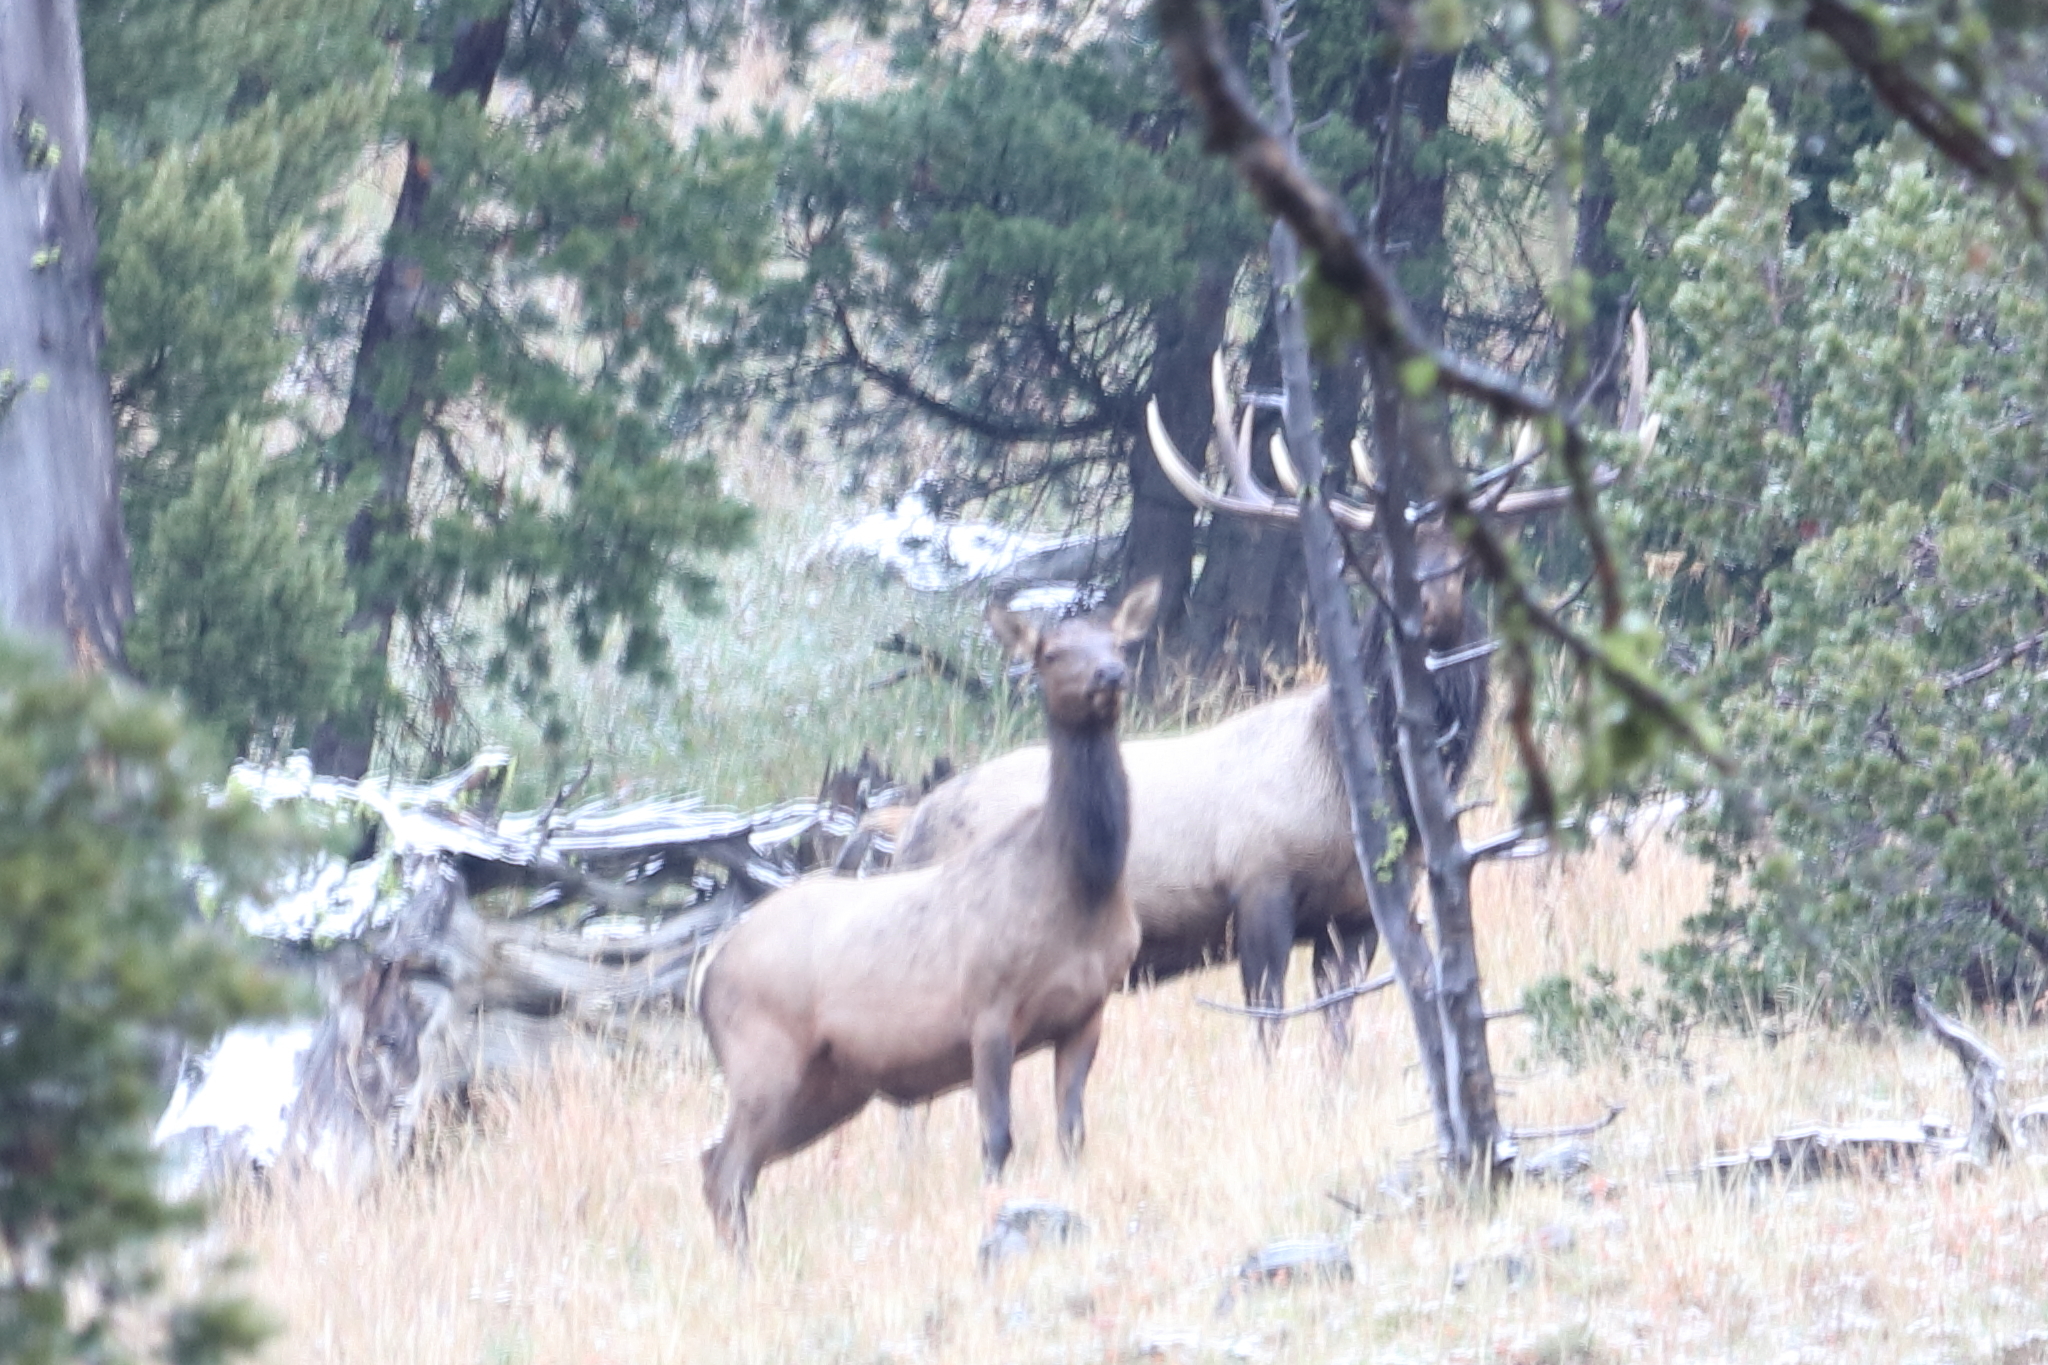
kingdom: Animalia
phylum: Chordata
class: Mammalia
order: Artiodactyla
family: Cervidae
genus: Cervus
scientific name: Cervus elaphus
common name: Red deer
